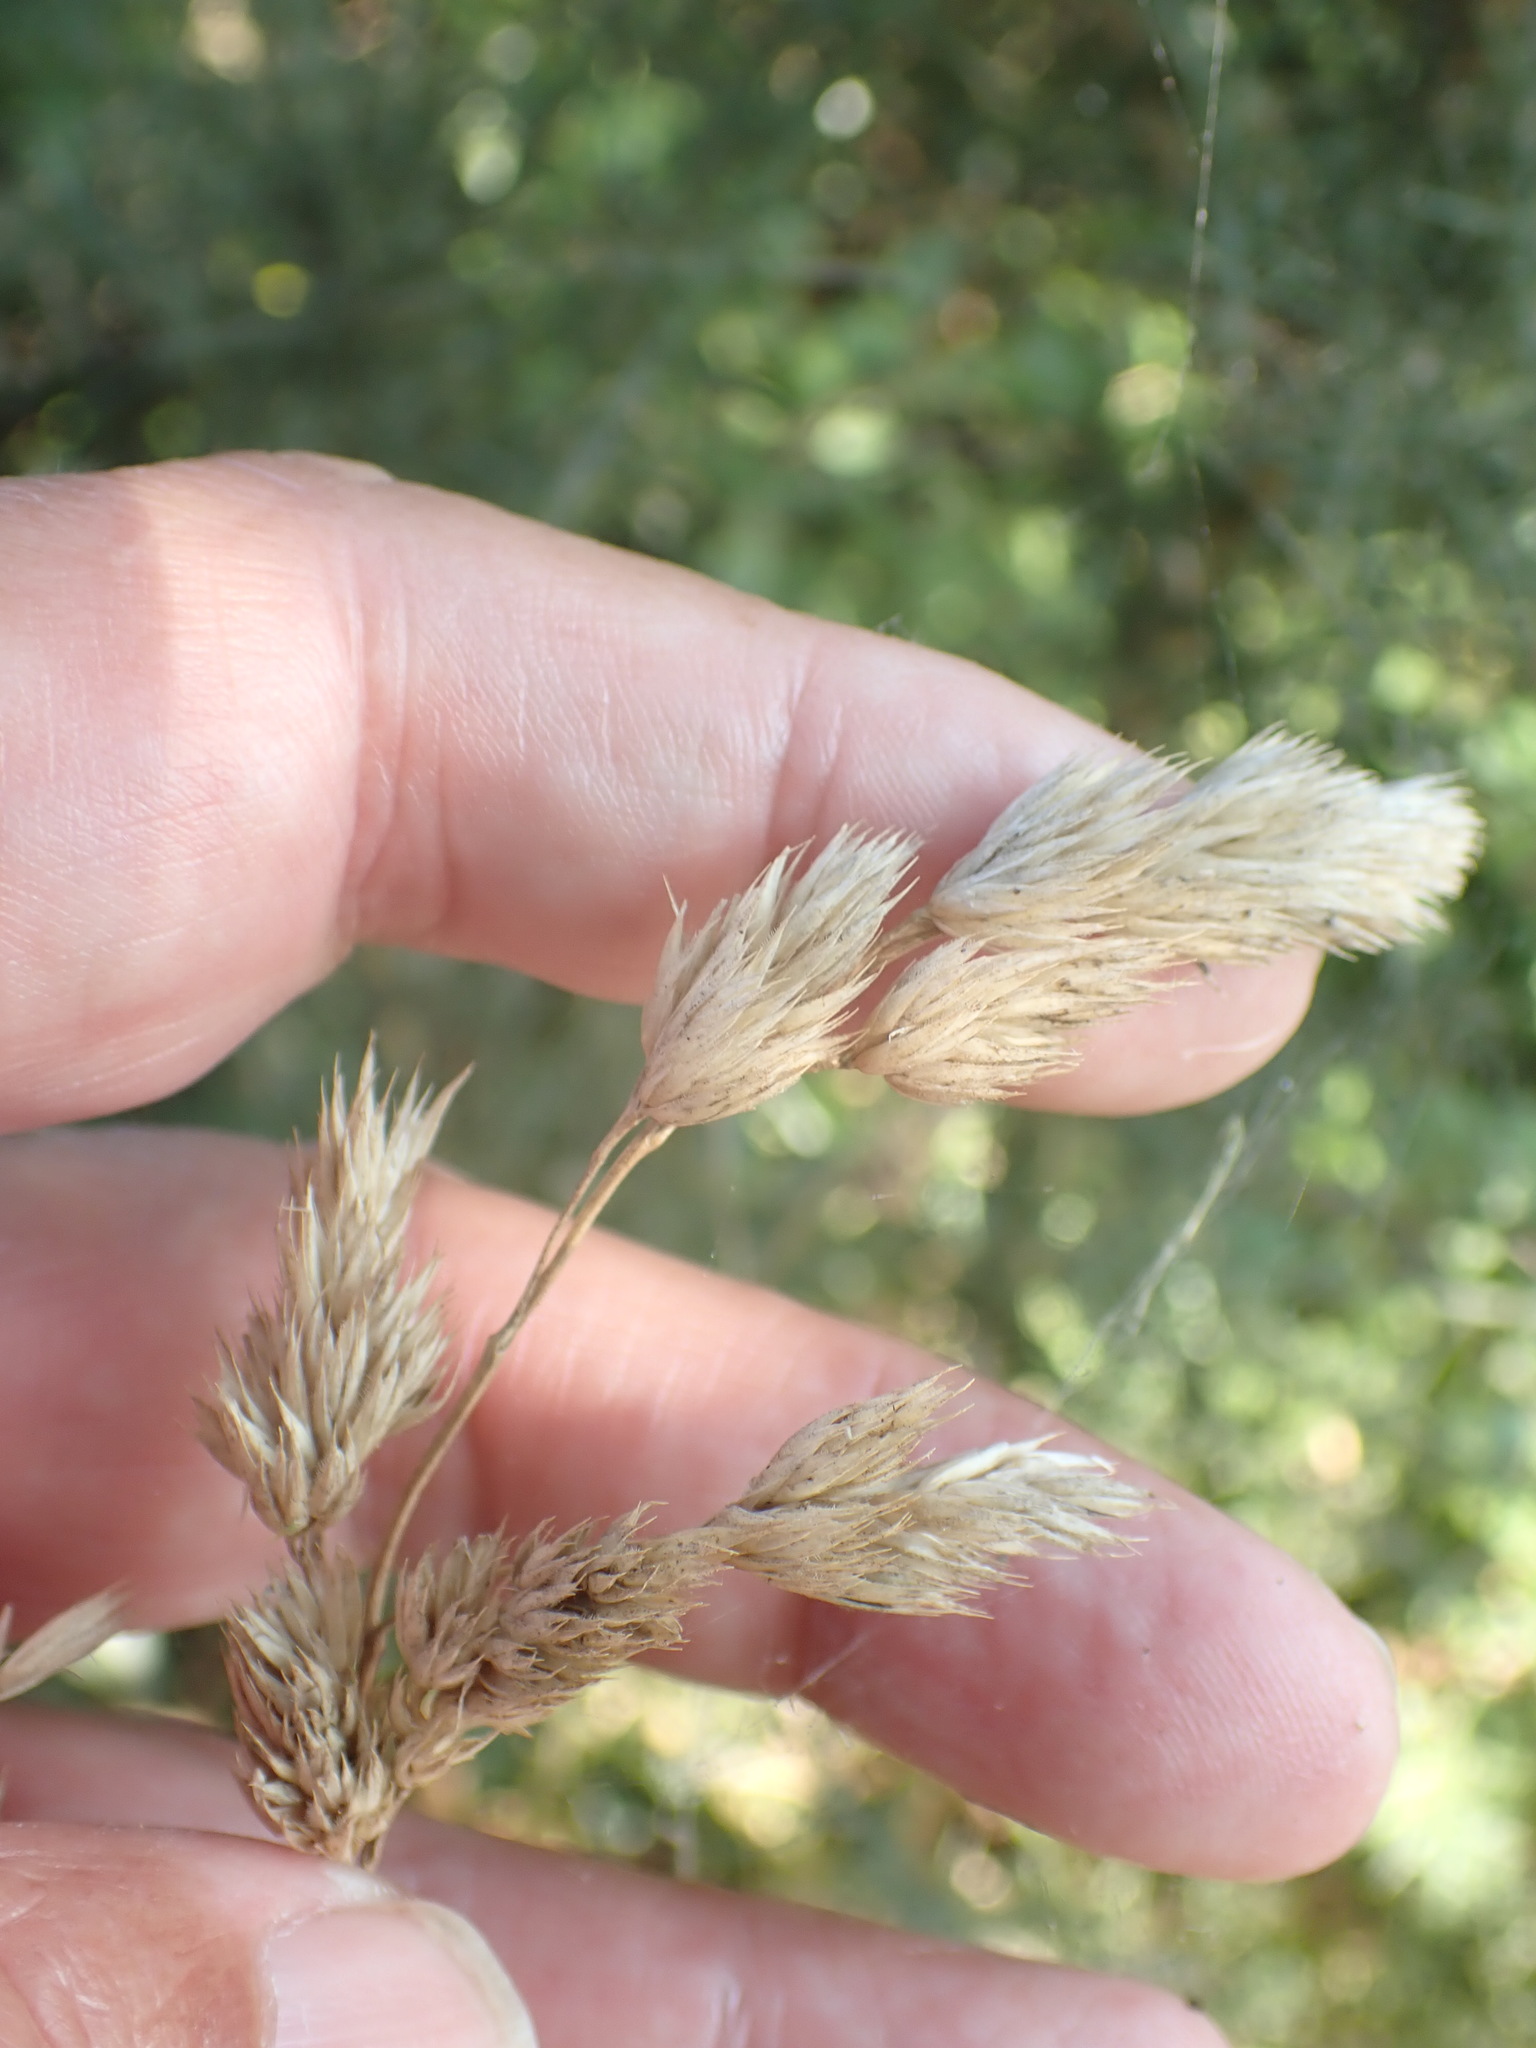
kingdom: Plantae
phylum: Tracheophyta
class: Liliopsida
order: Poales
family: Poaceae
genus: Dactylis
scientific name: Dactylis glomerata
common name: Orchardgrass
